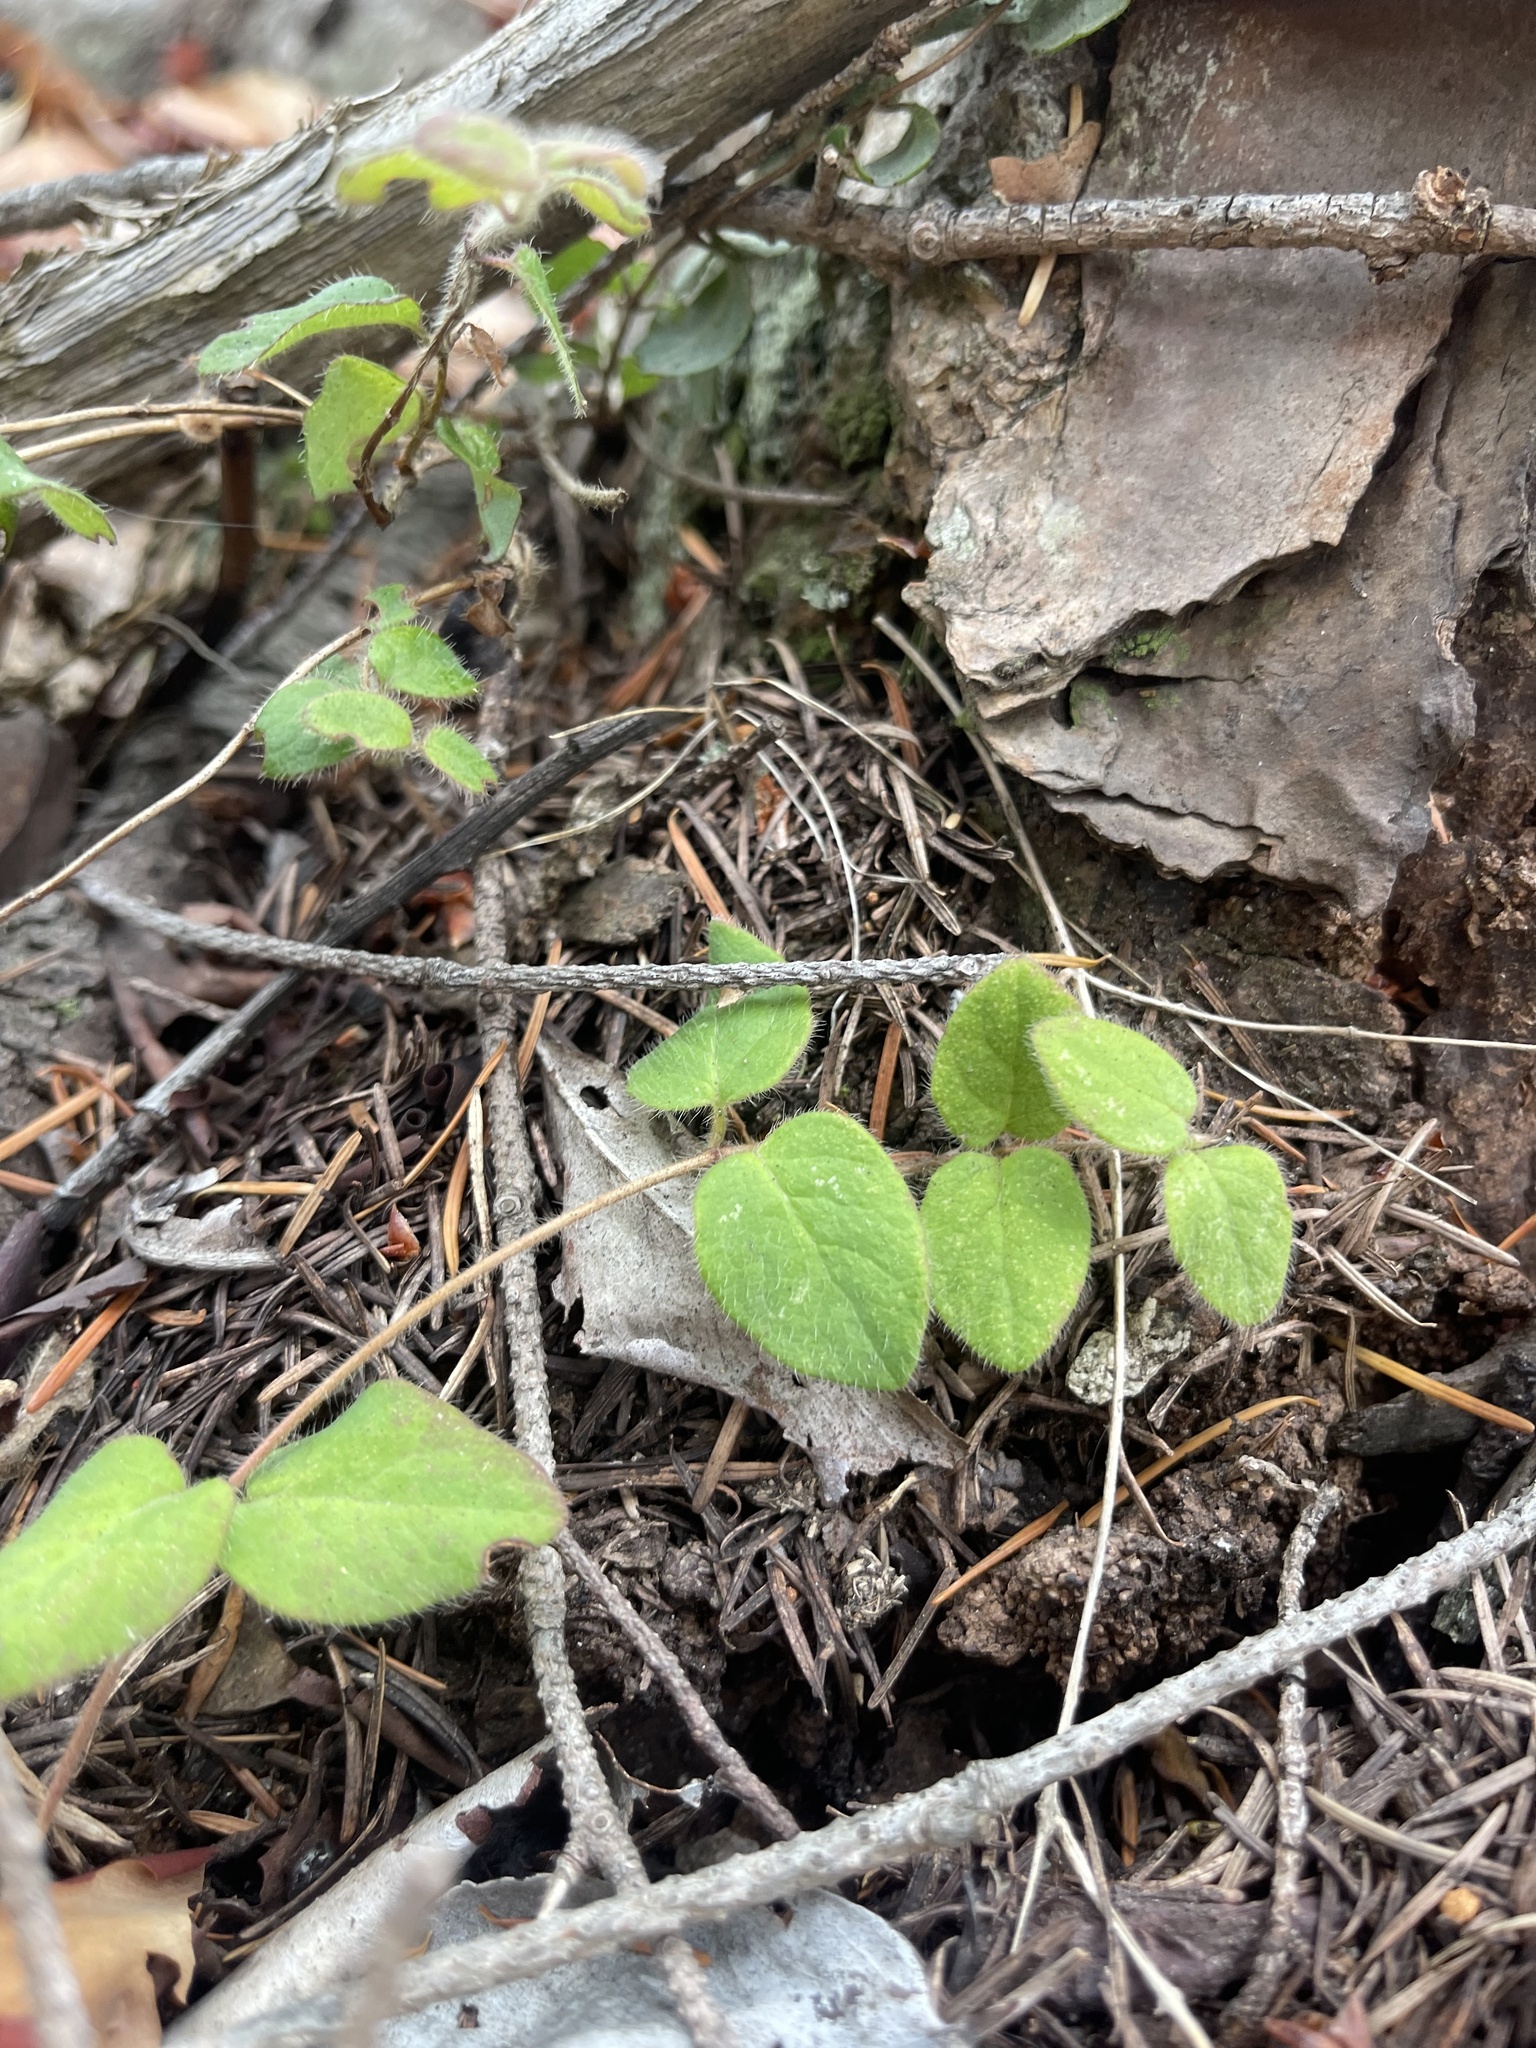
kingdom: Plantae
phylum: Tracheophyta
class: Magnoliopsida
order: Dipsacales
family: Caprifoliaceae
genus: Lonicera
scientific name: Lonicera hispidula
